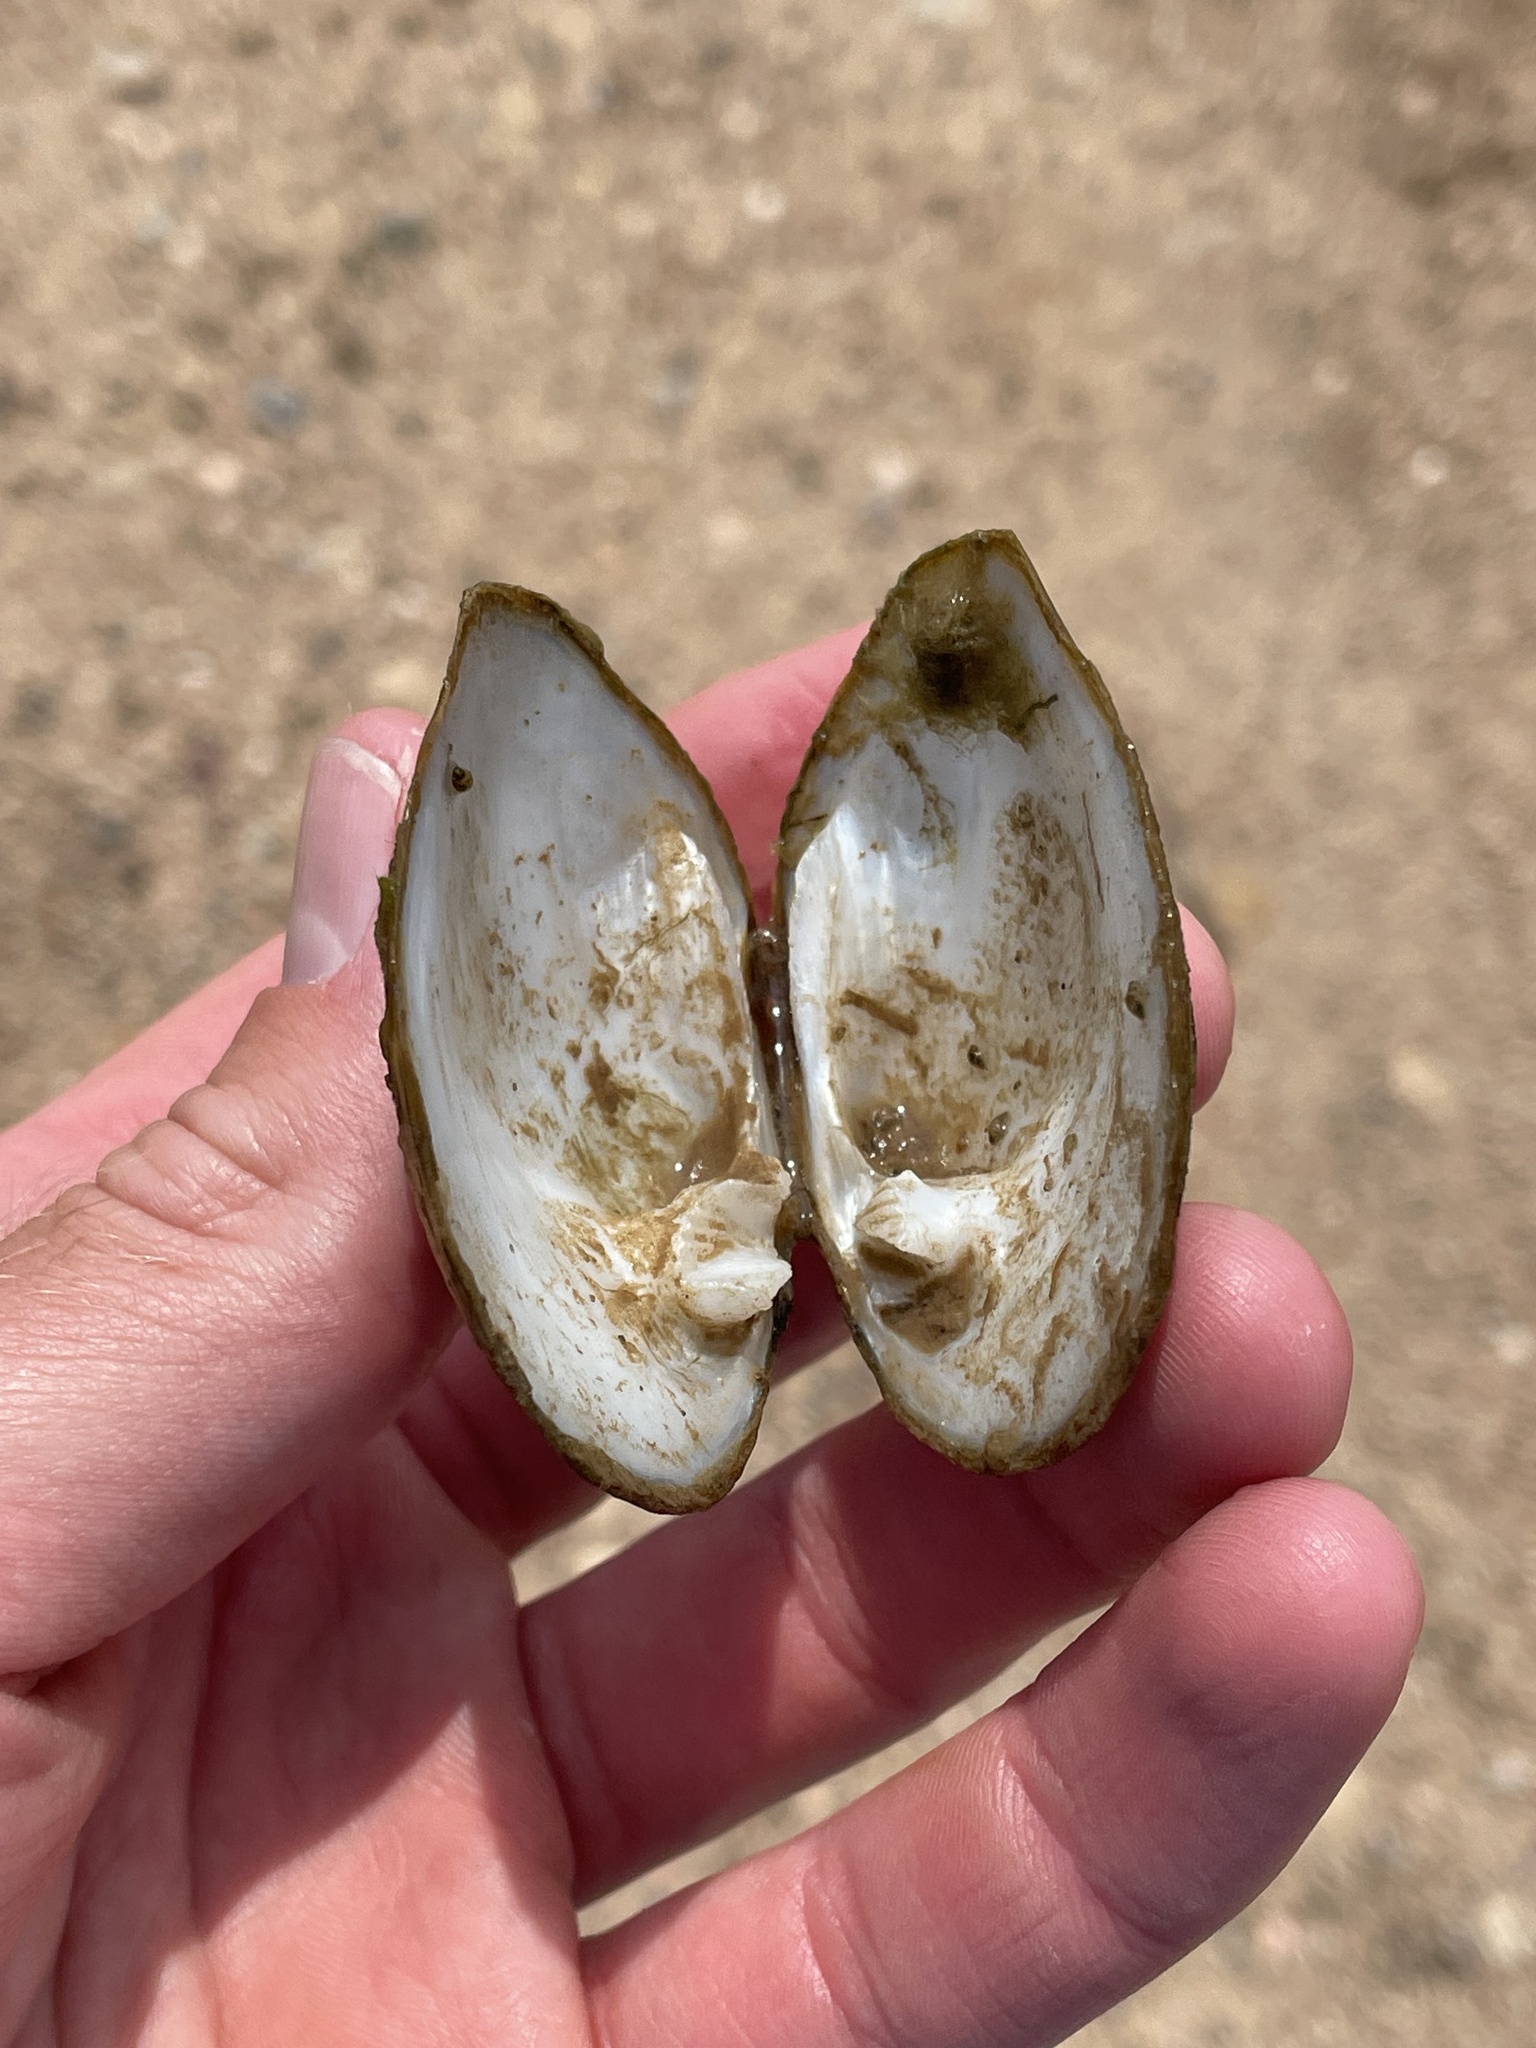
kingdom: Animalia
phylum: Mollusca
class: Bivalvia
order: Unionida
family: Unionidae
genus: Quadrula
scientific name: Quadrula quadrula
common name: Mapleleaf
